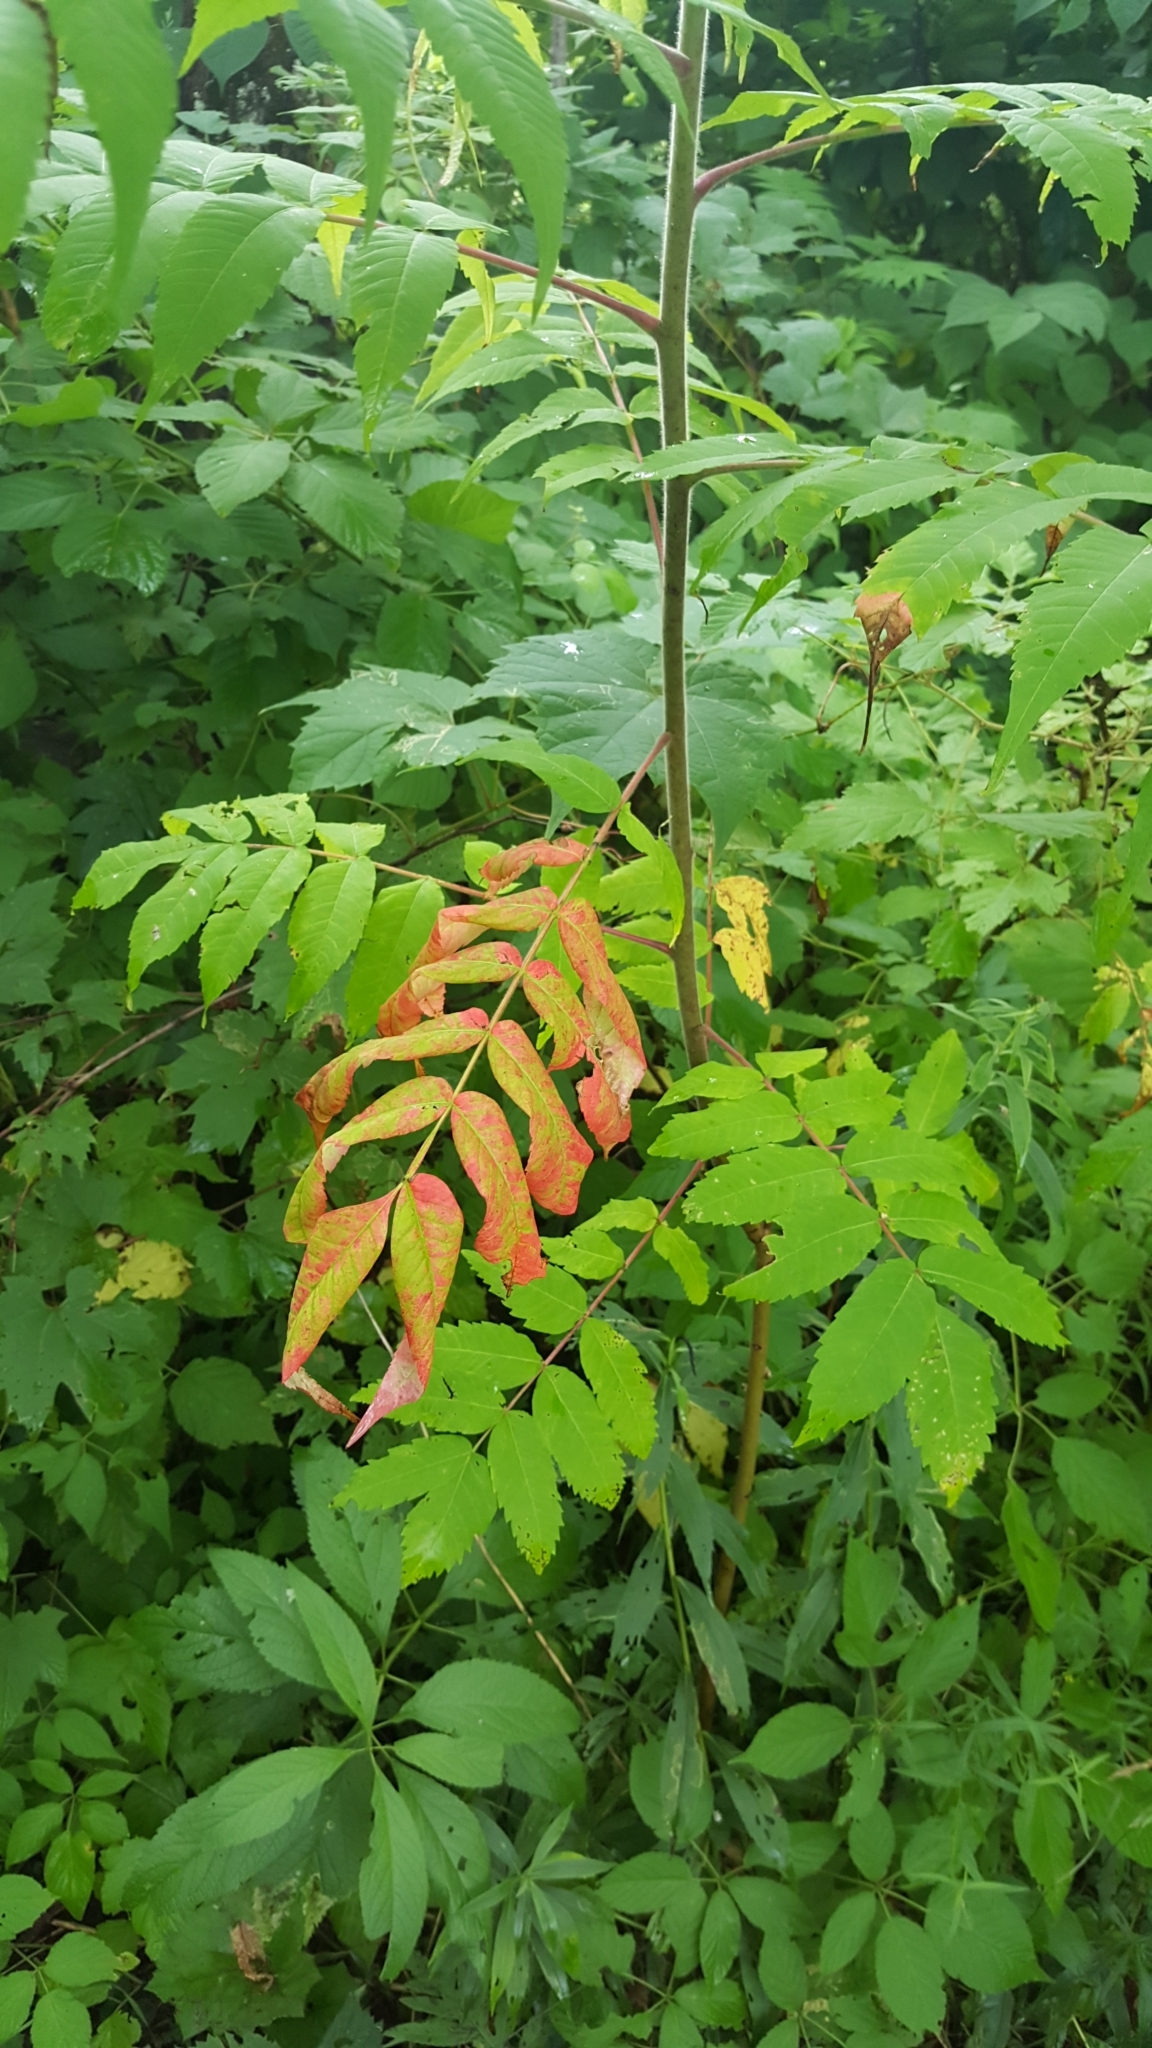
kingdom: Plantae
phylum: Tracheophyta
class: Magnoliopsida
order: Sapindales
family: Anacardiaceae
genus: Rhus
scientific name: Rhus typhina
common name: Staghorn sumac
